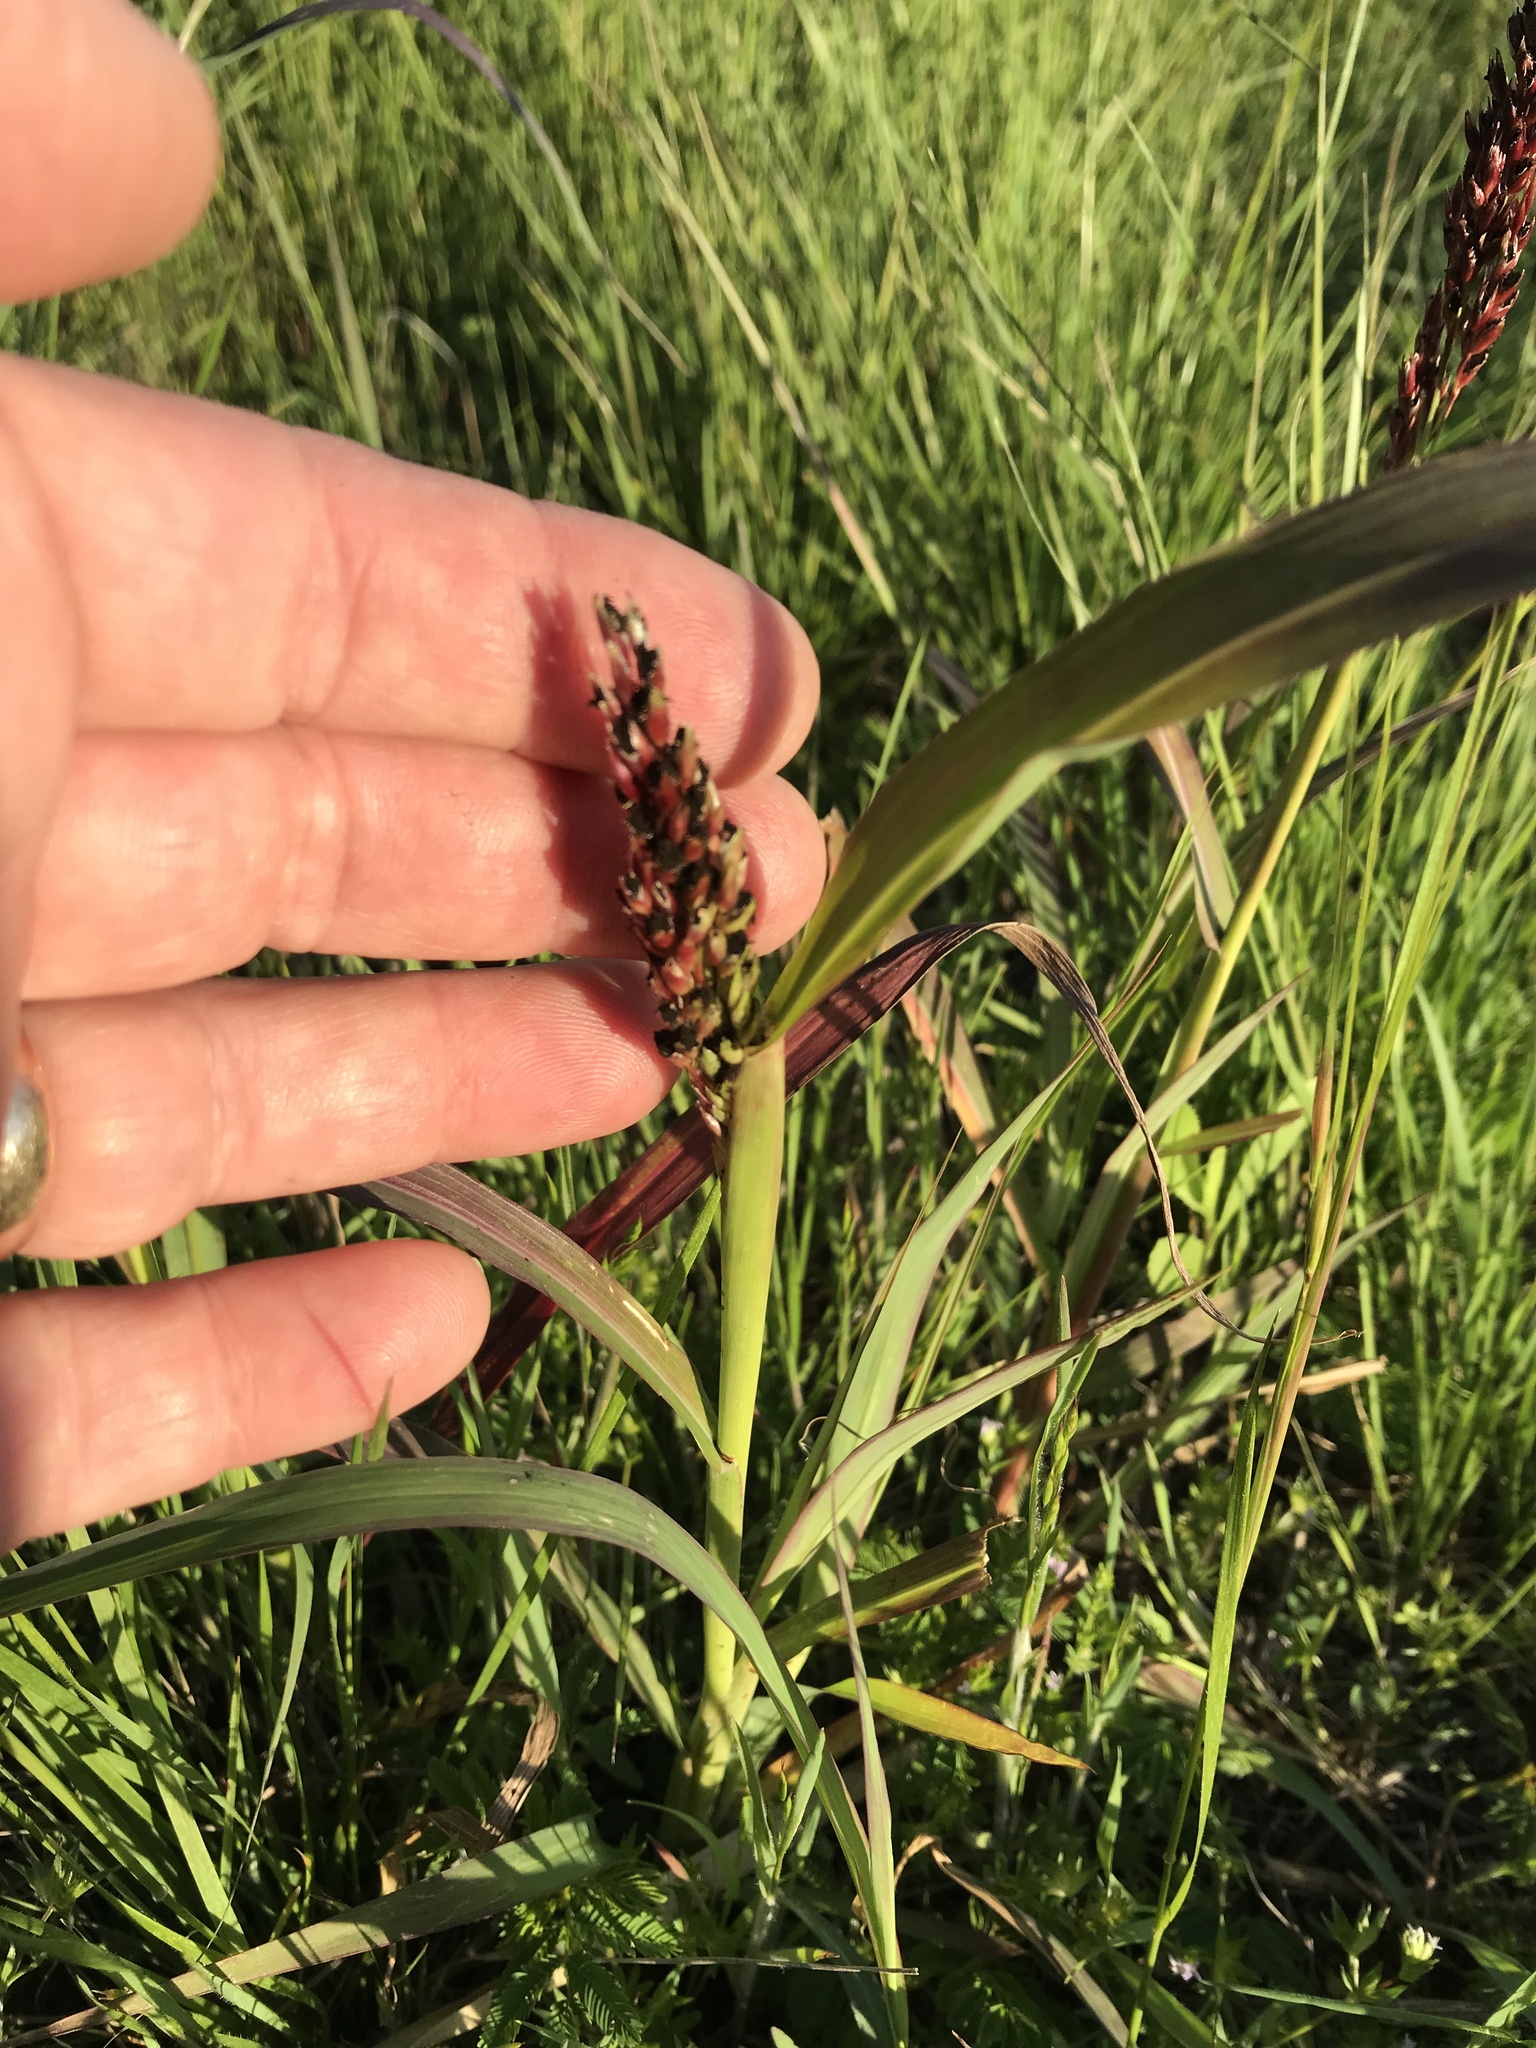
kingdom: Plantae
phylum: Tracheophyta
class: Liliopsida
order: Poales
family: Poaceae
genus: Sorghum
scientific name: Sorghum halepense
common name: Johnson-grass
